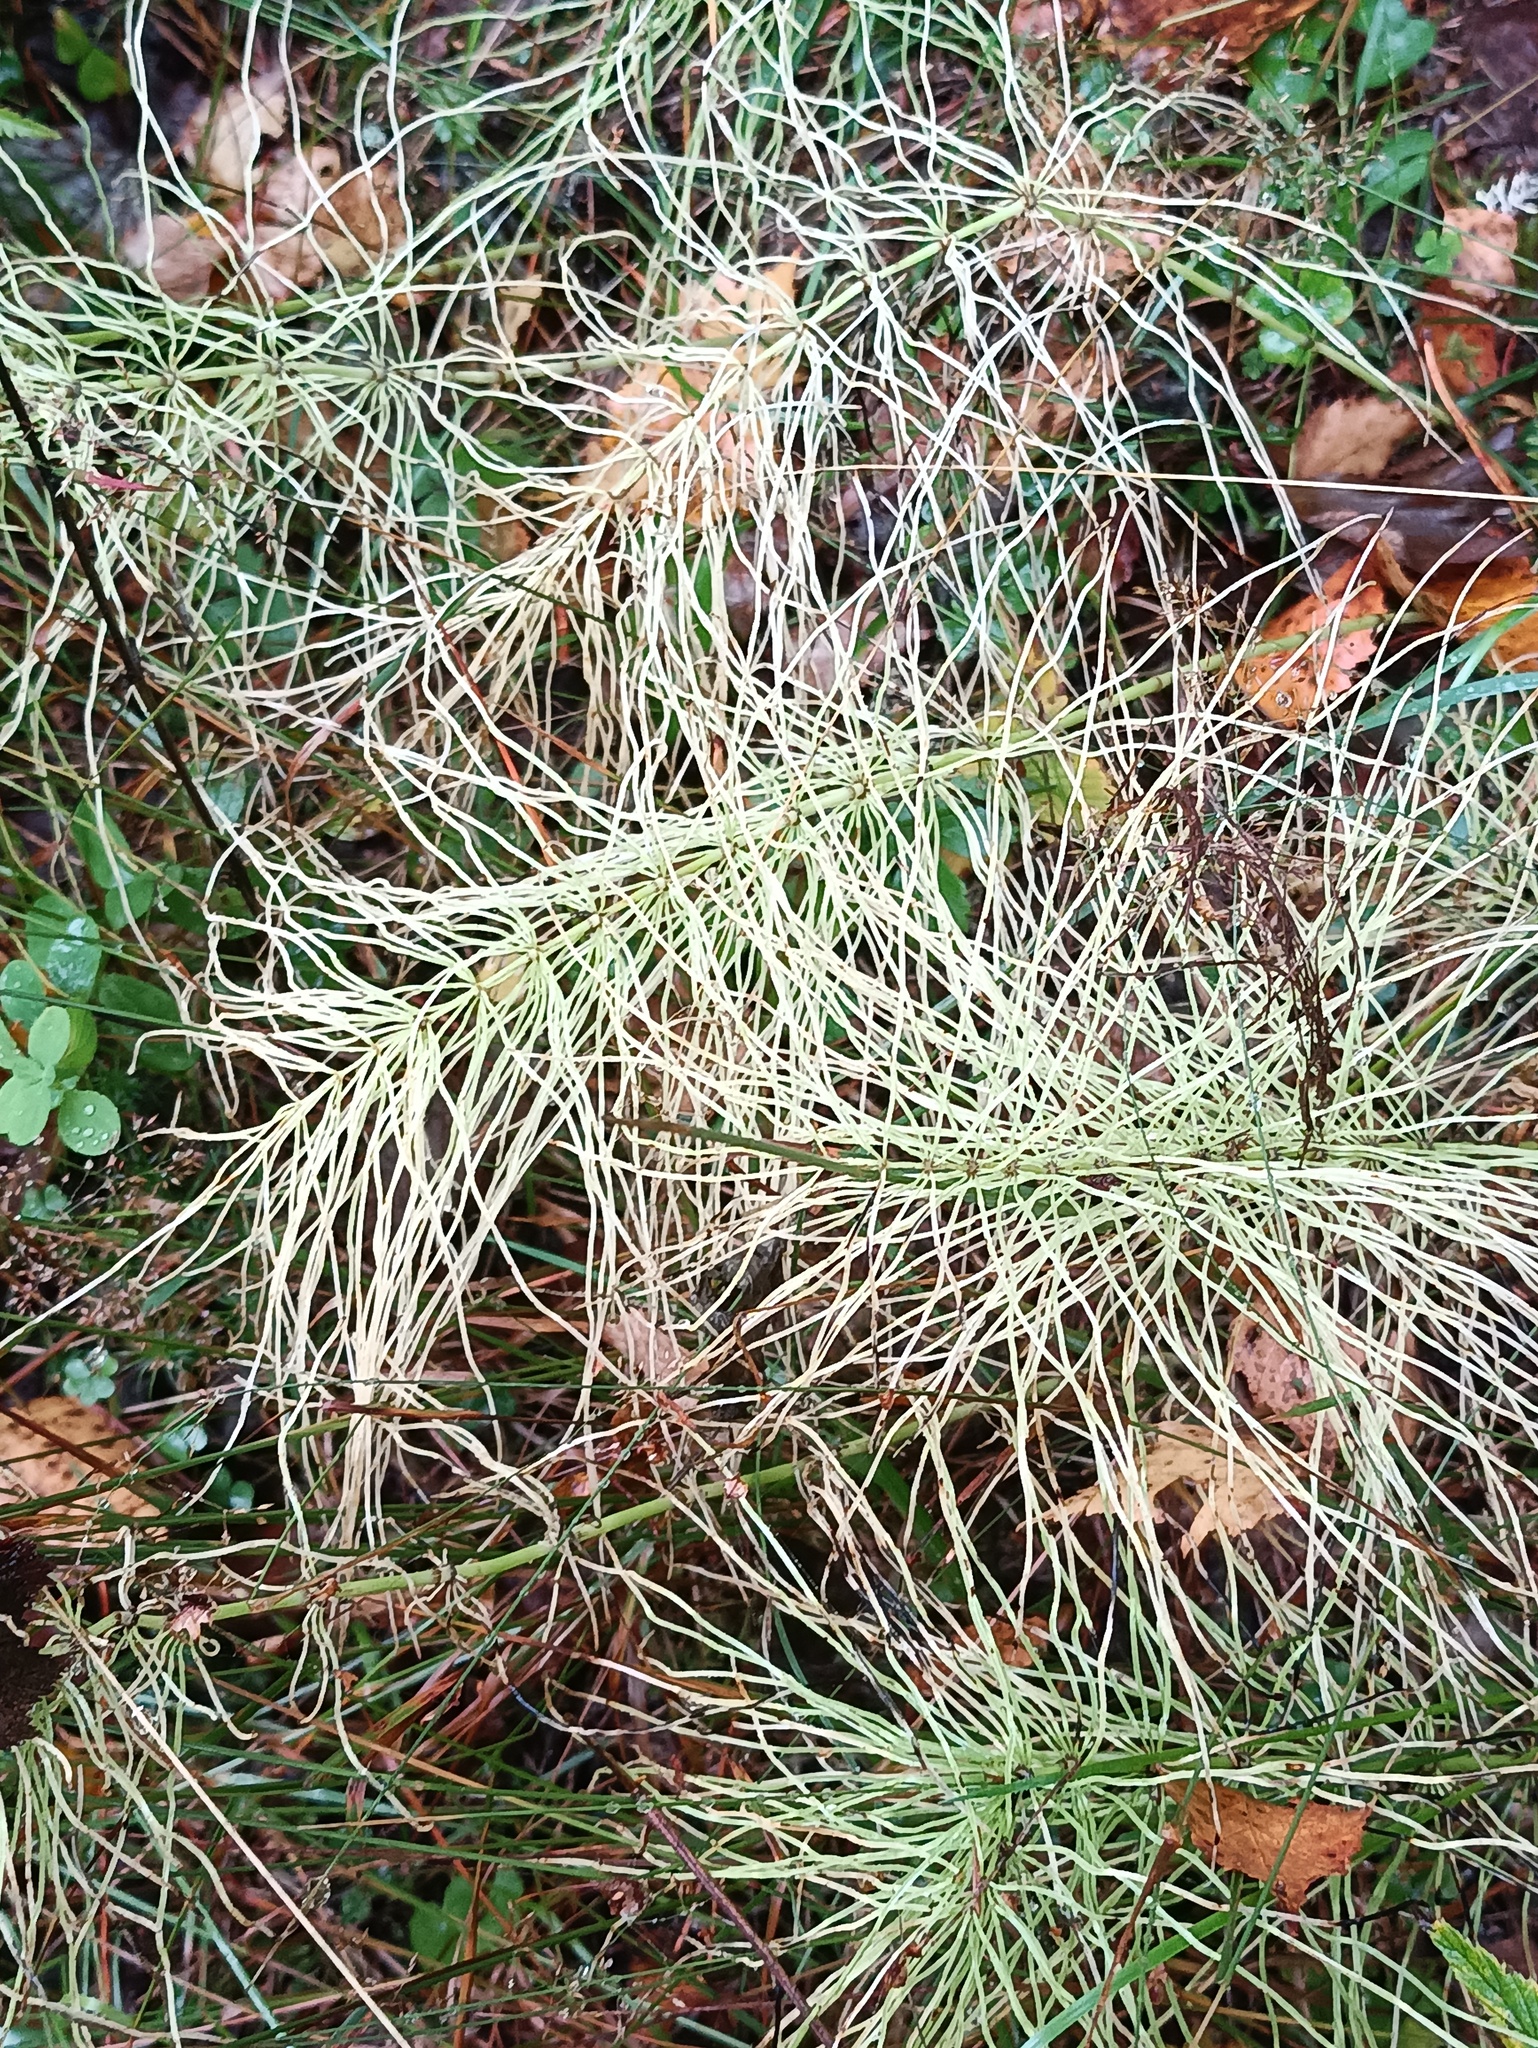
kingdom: Plantae
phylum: Tracheophyta
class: Polypodiopsida
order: Equisetales
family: Equisetaceae
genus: Equisetum
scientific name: Equisetum pratense
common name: Meadow horsetail
